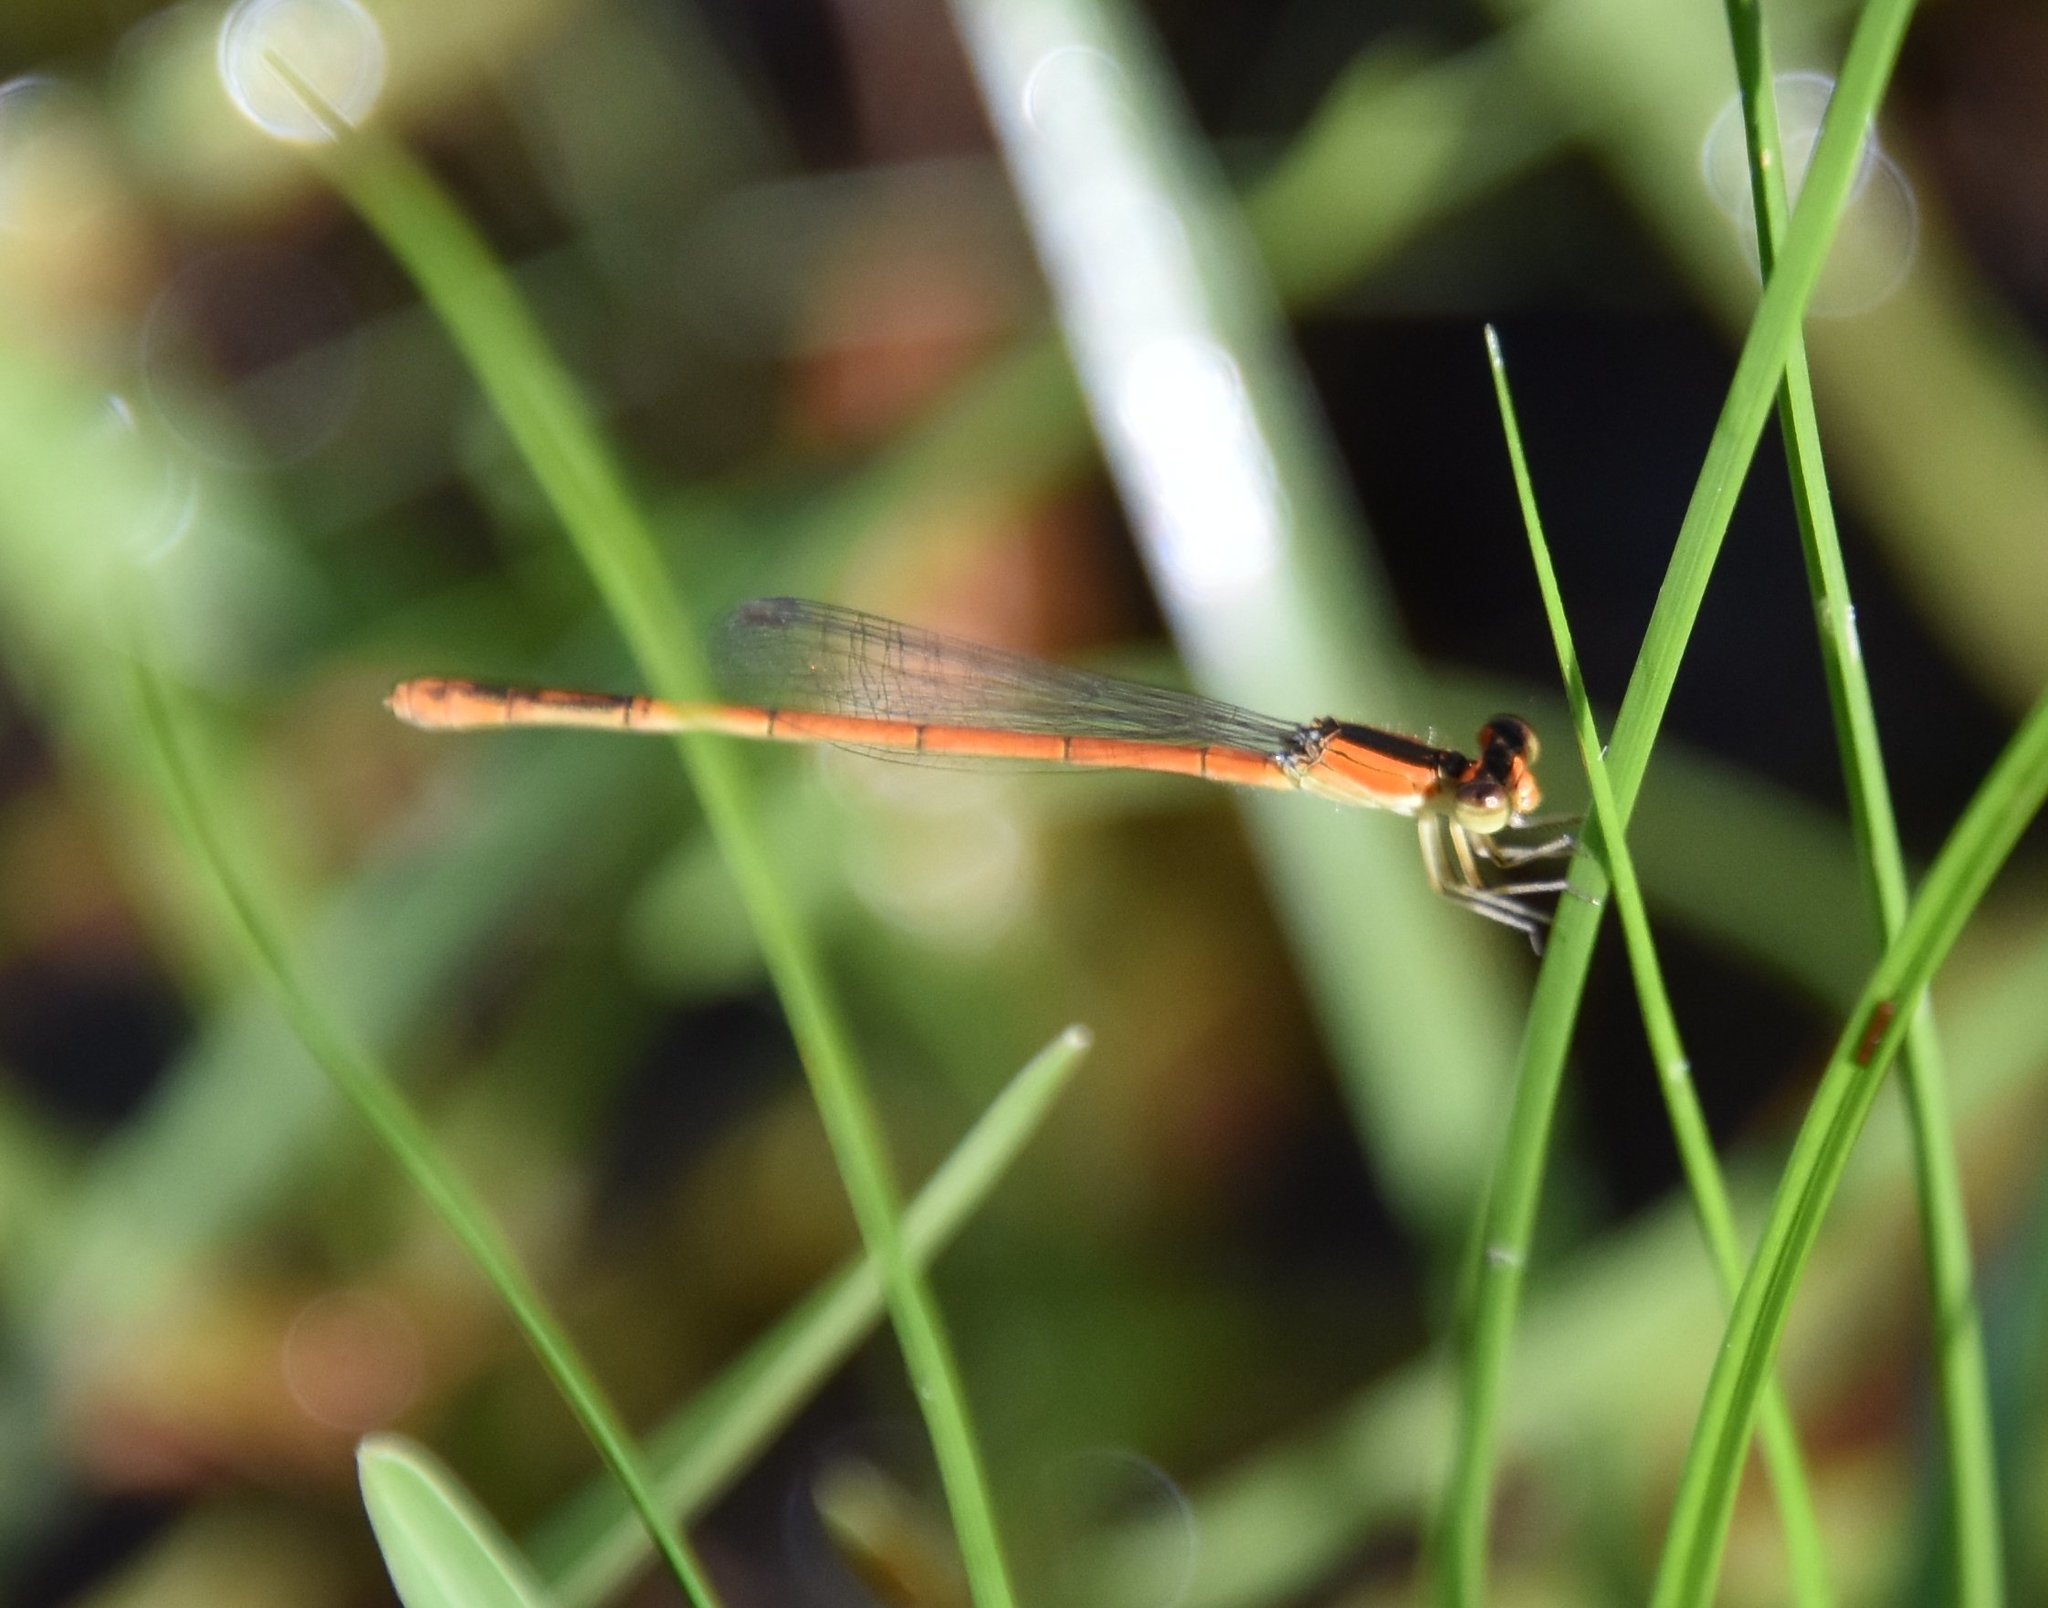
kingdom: Animalia
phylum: Arthropoda
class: Insecta
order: Odonata
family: Coenagrionidae
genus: Ischnura
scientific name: Ischnura hastata
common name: Citrine forktail
